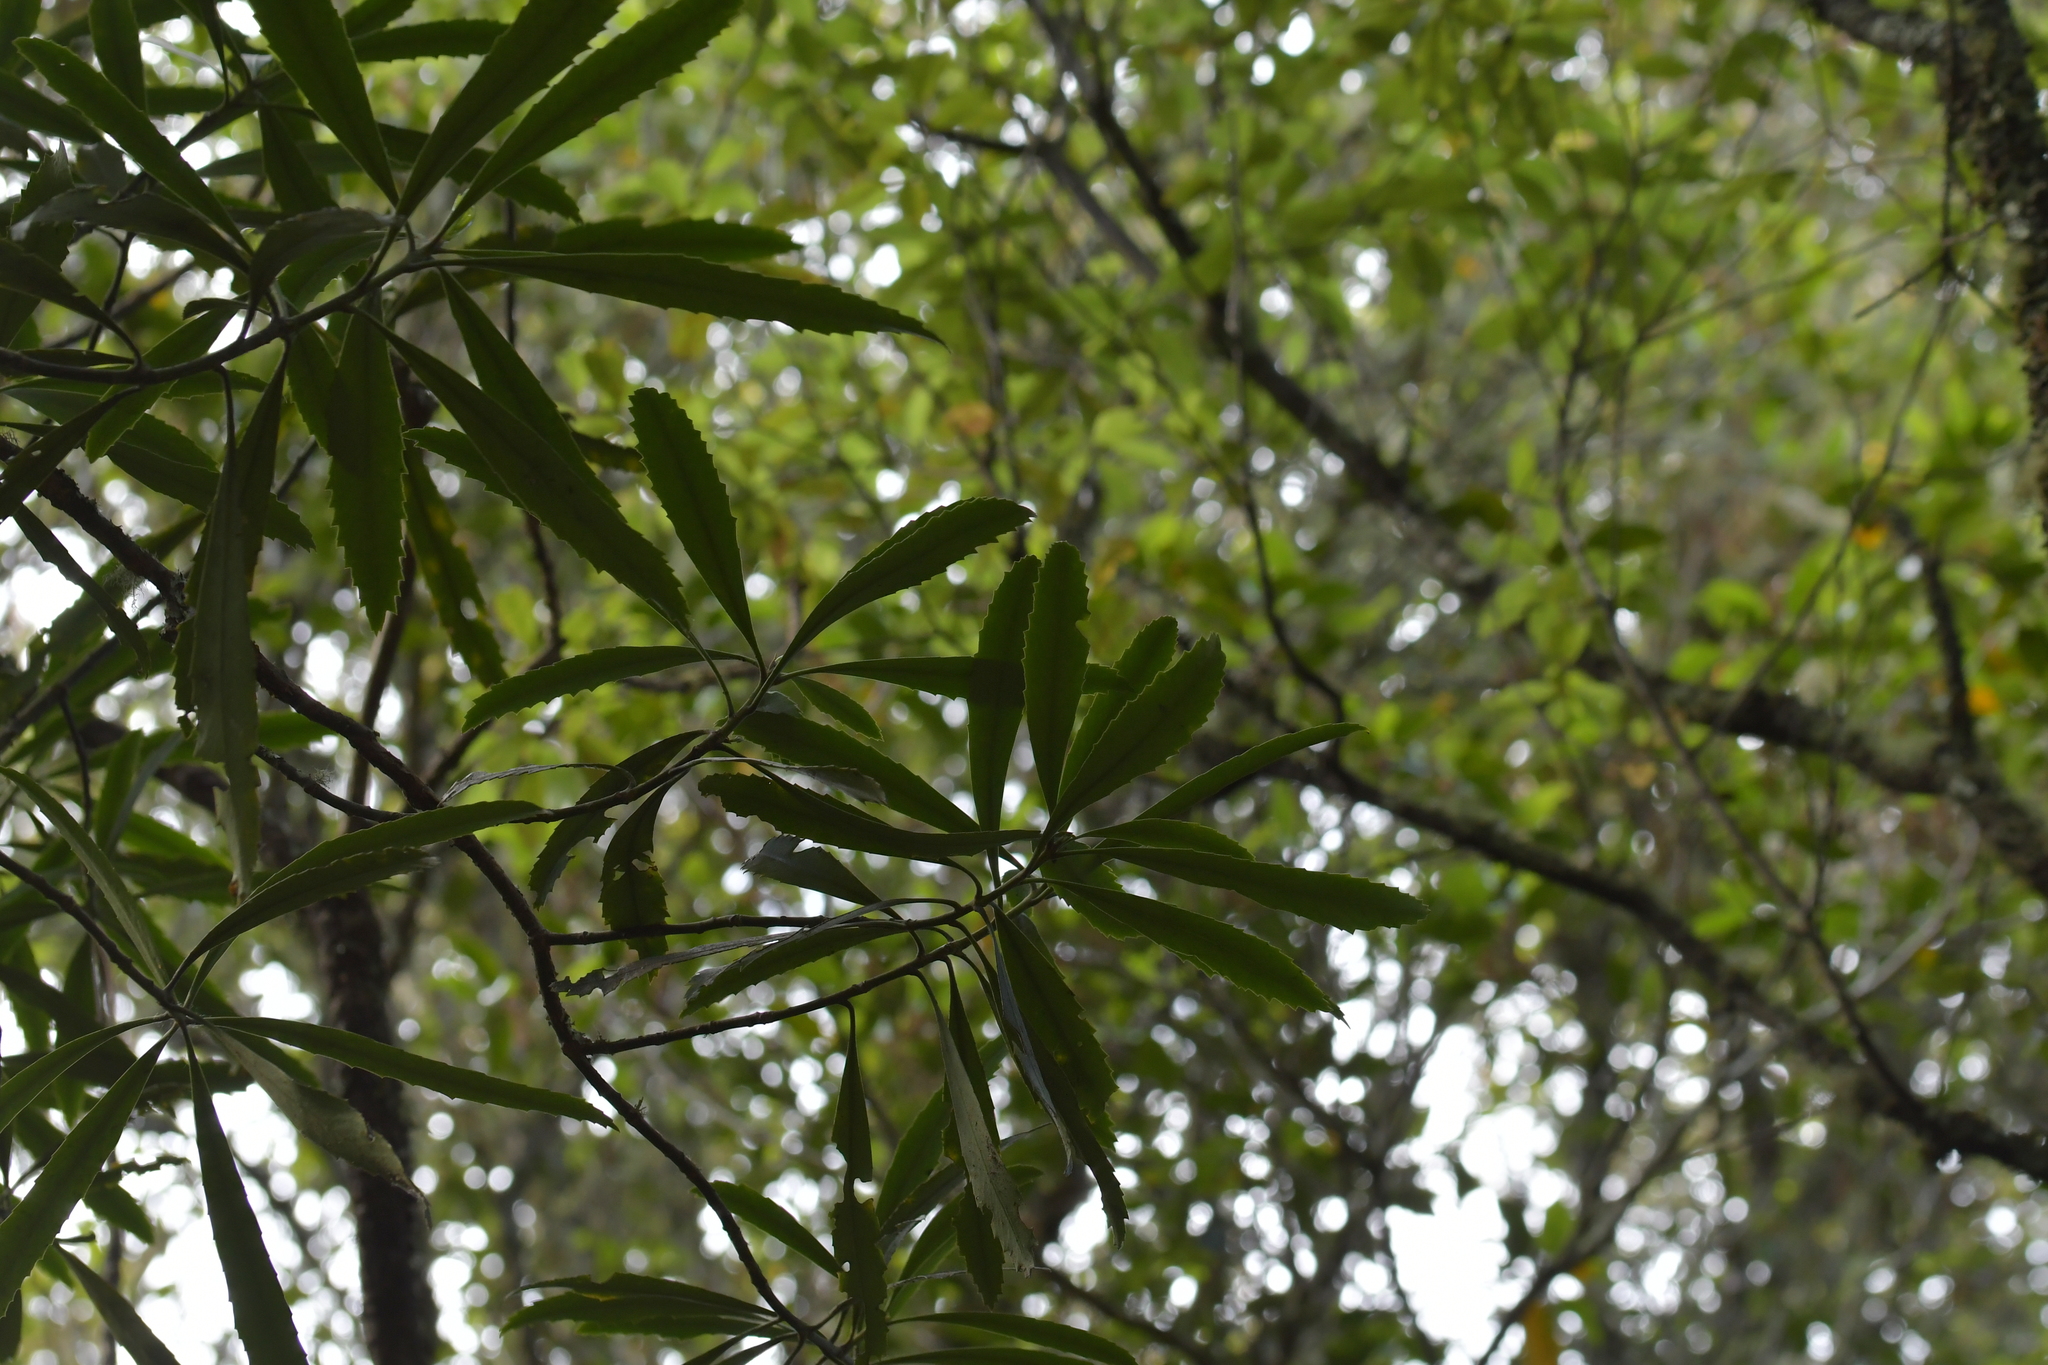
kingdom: Plantae
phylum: Tracheophyta
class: Magnoliopsida
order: Apiales
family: Araliaceae
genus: Pseudopanax
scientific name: Pseudopanax crassifolius
